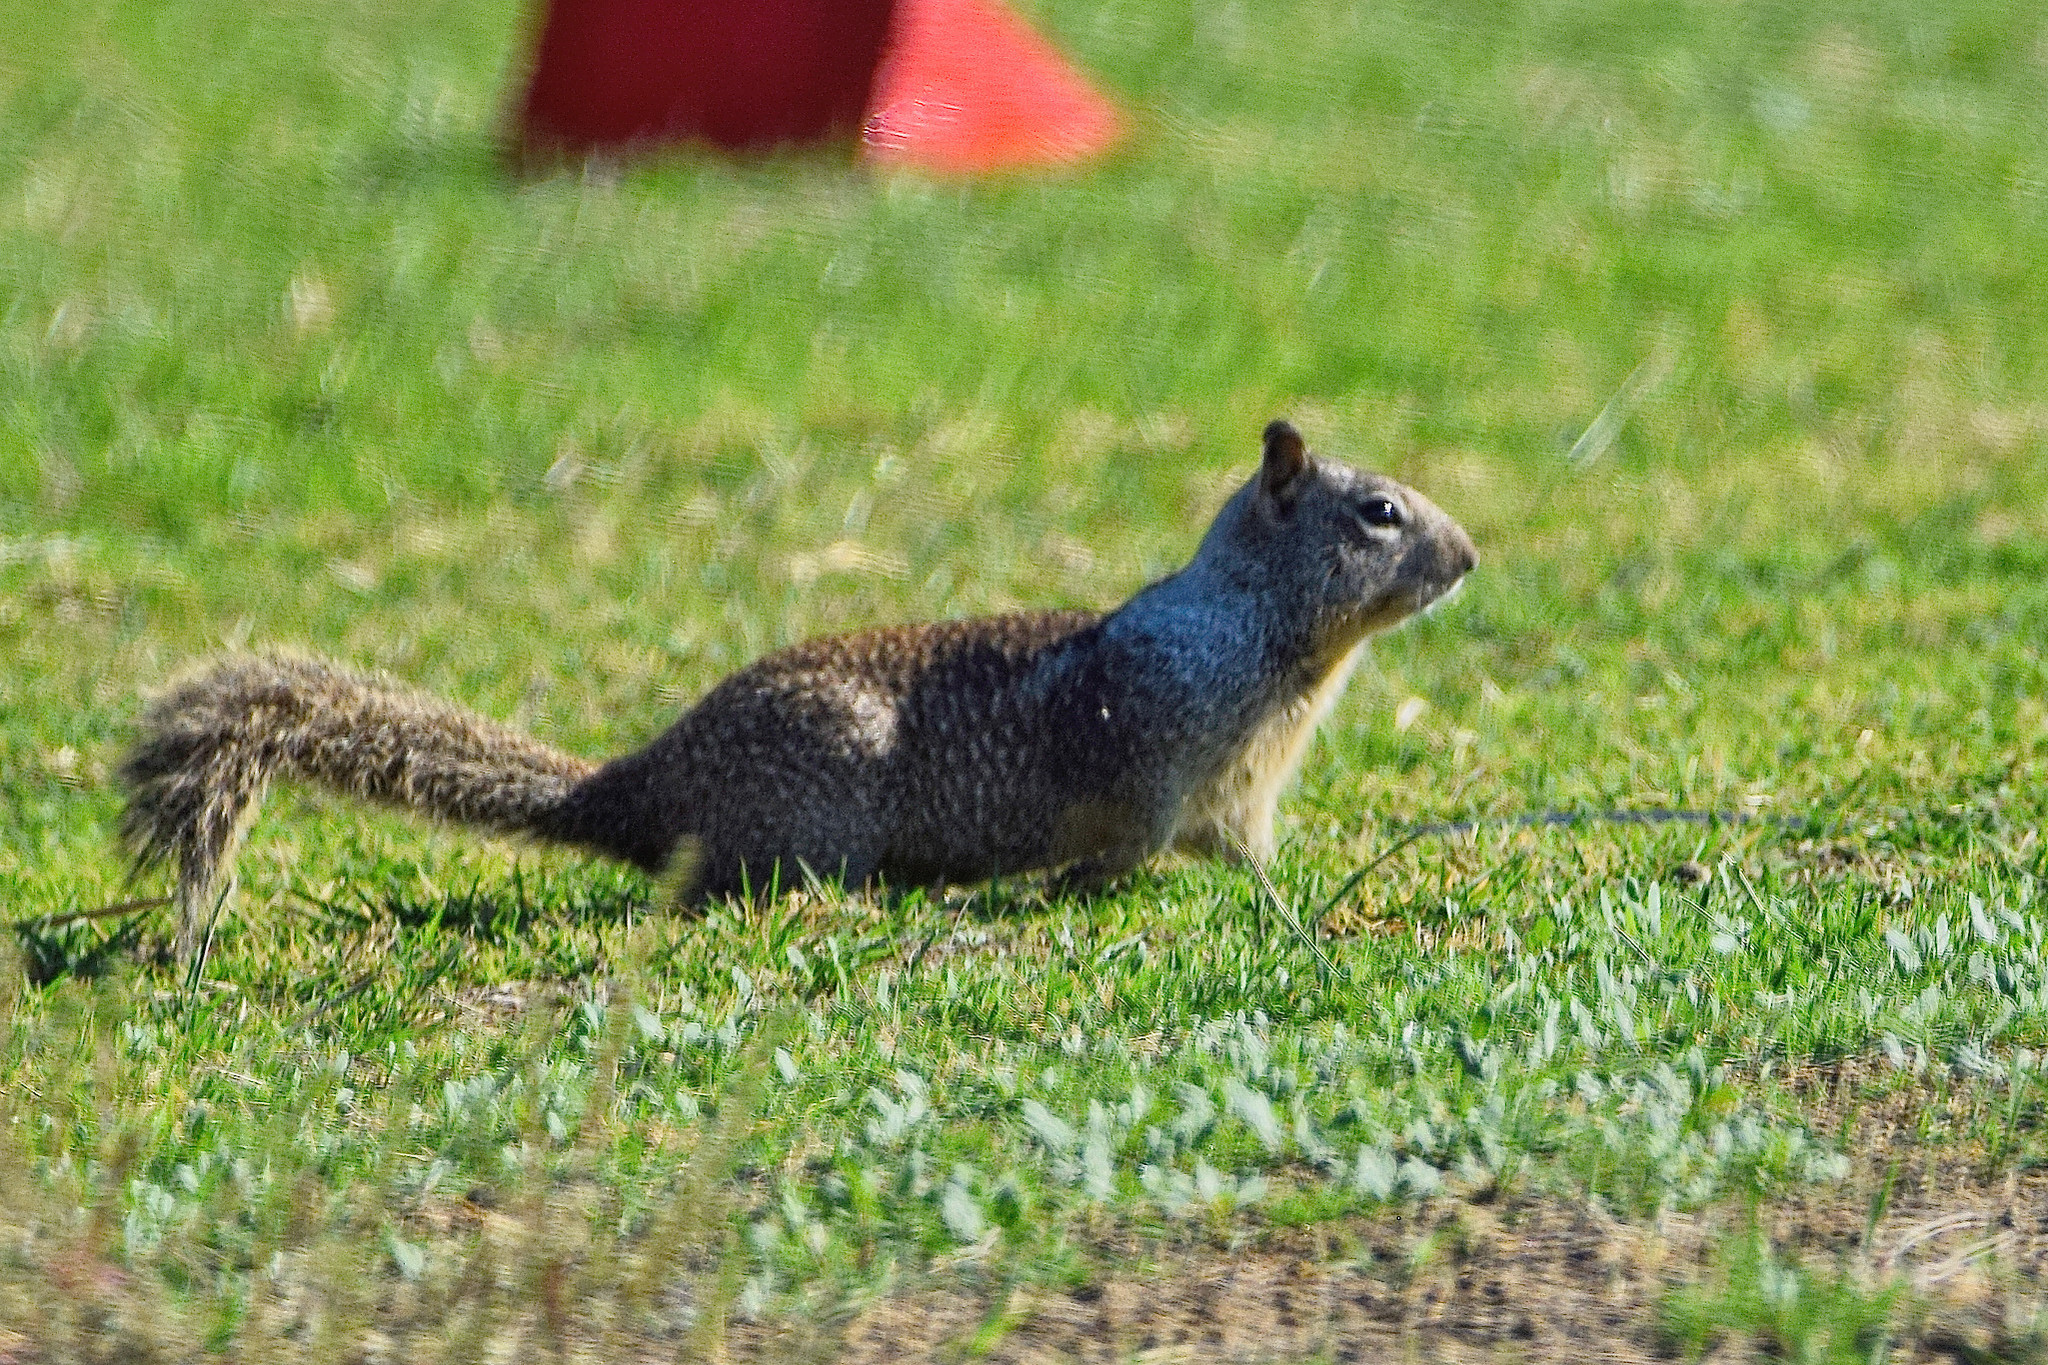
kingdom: Animalia
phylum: Chordata
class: Mammalia
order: Rodentia
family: Sciuridae
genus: Otospermophilus
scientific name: Otospermophilus beecheyi
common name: California ground squirrel
